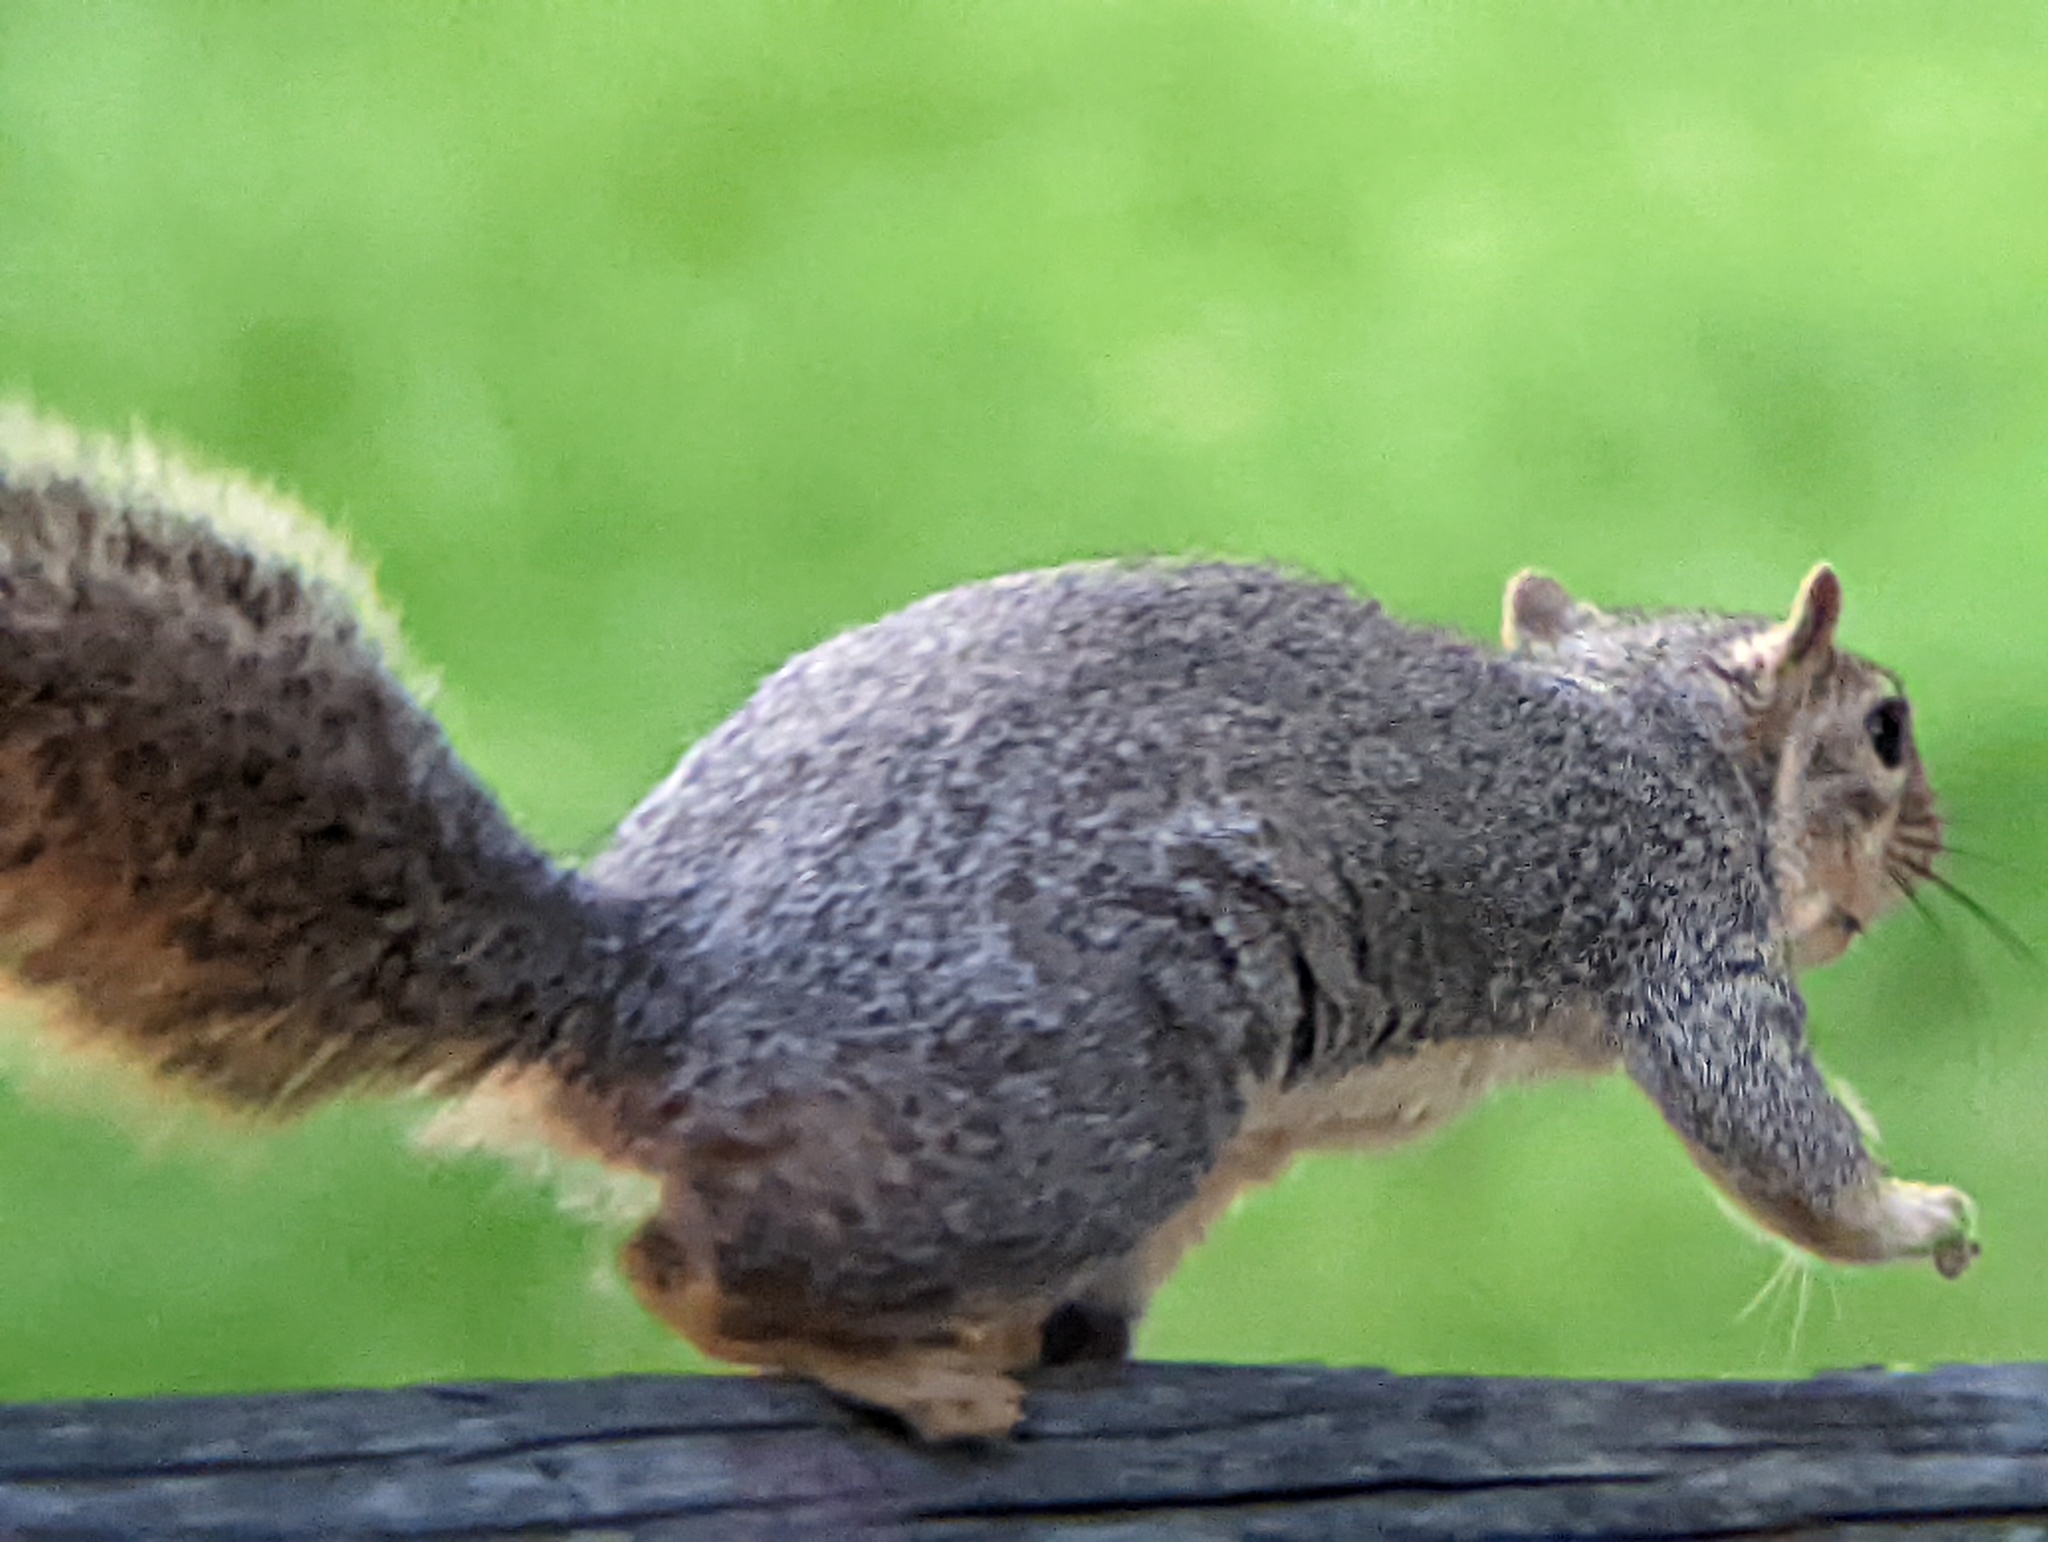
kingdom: Animalia
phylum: Chordata
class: Mammalia
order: Rodentia
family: Sciuridae
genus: Sciurus
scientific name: Sciurus niger
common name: Fox squirrel
